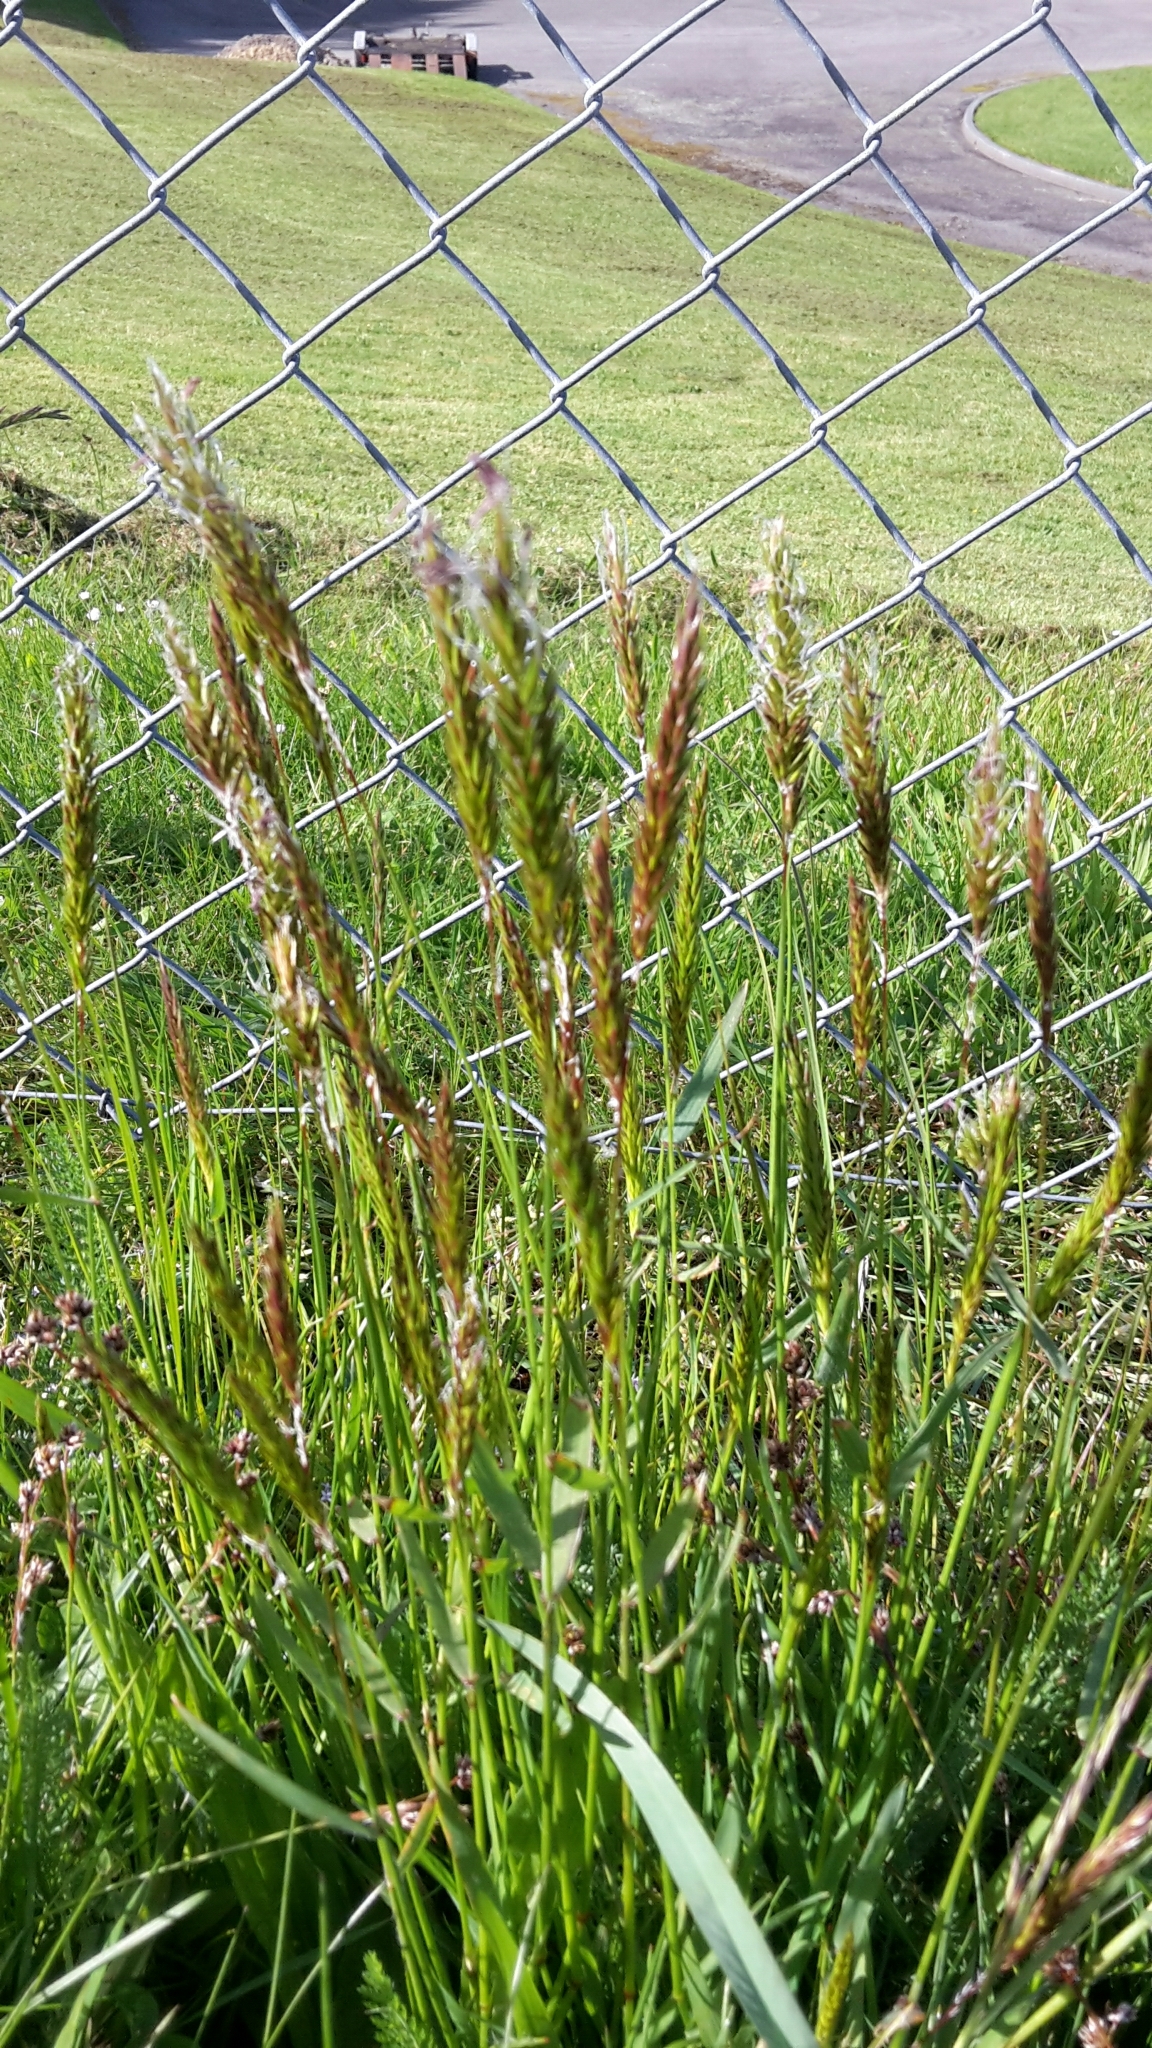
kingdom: Plantae
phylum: Tracheophyta
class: Liliopsida
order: Poales
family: Poaceae
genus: Anthoxanthum
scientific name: Anthoxanthum odoratum
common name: Sweet vernalgrass
